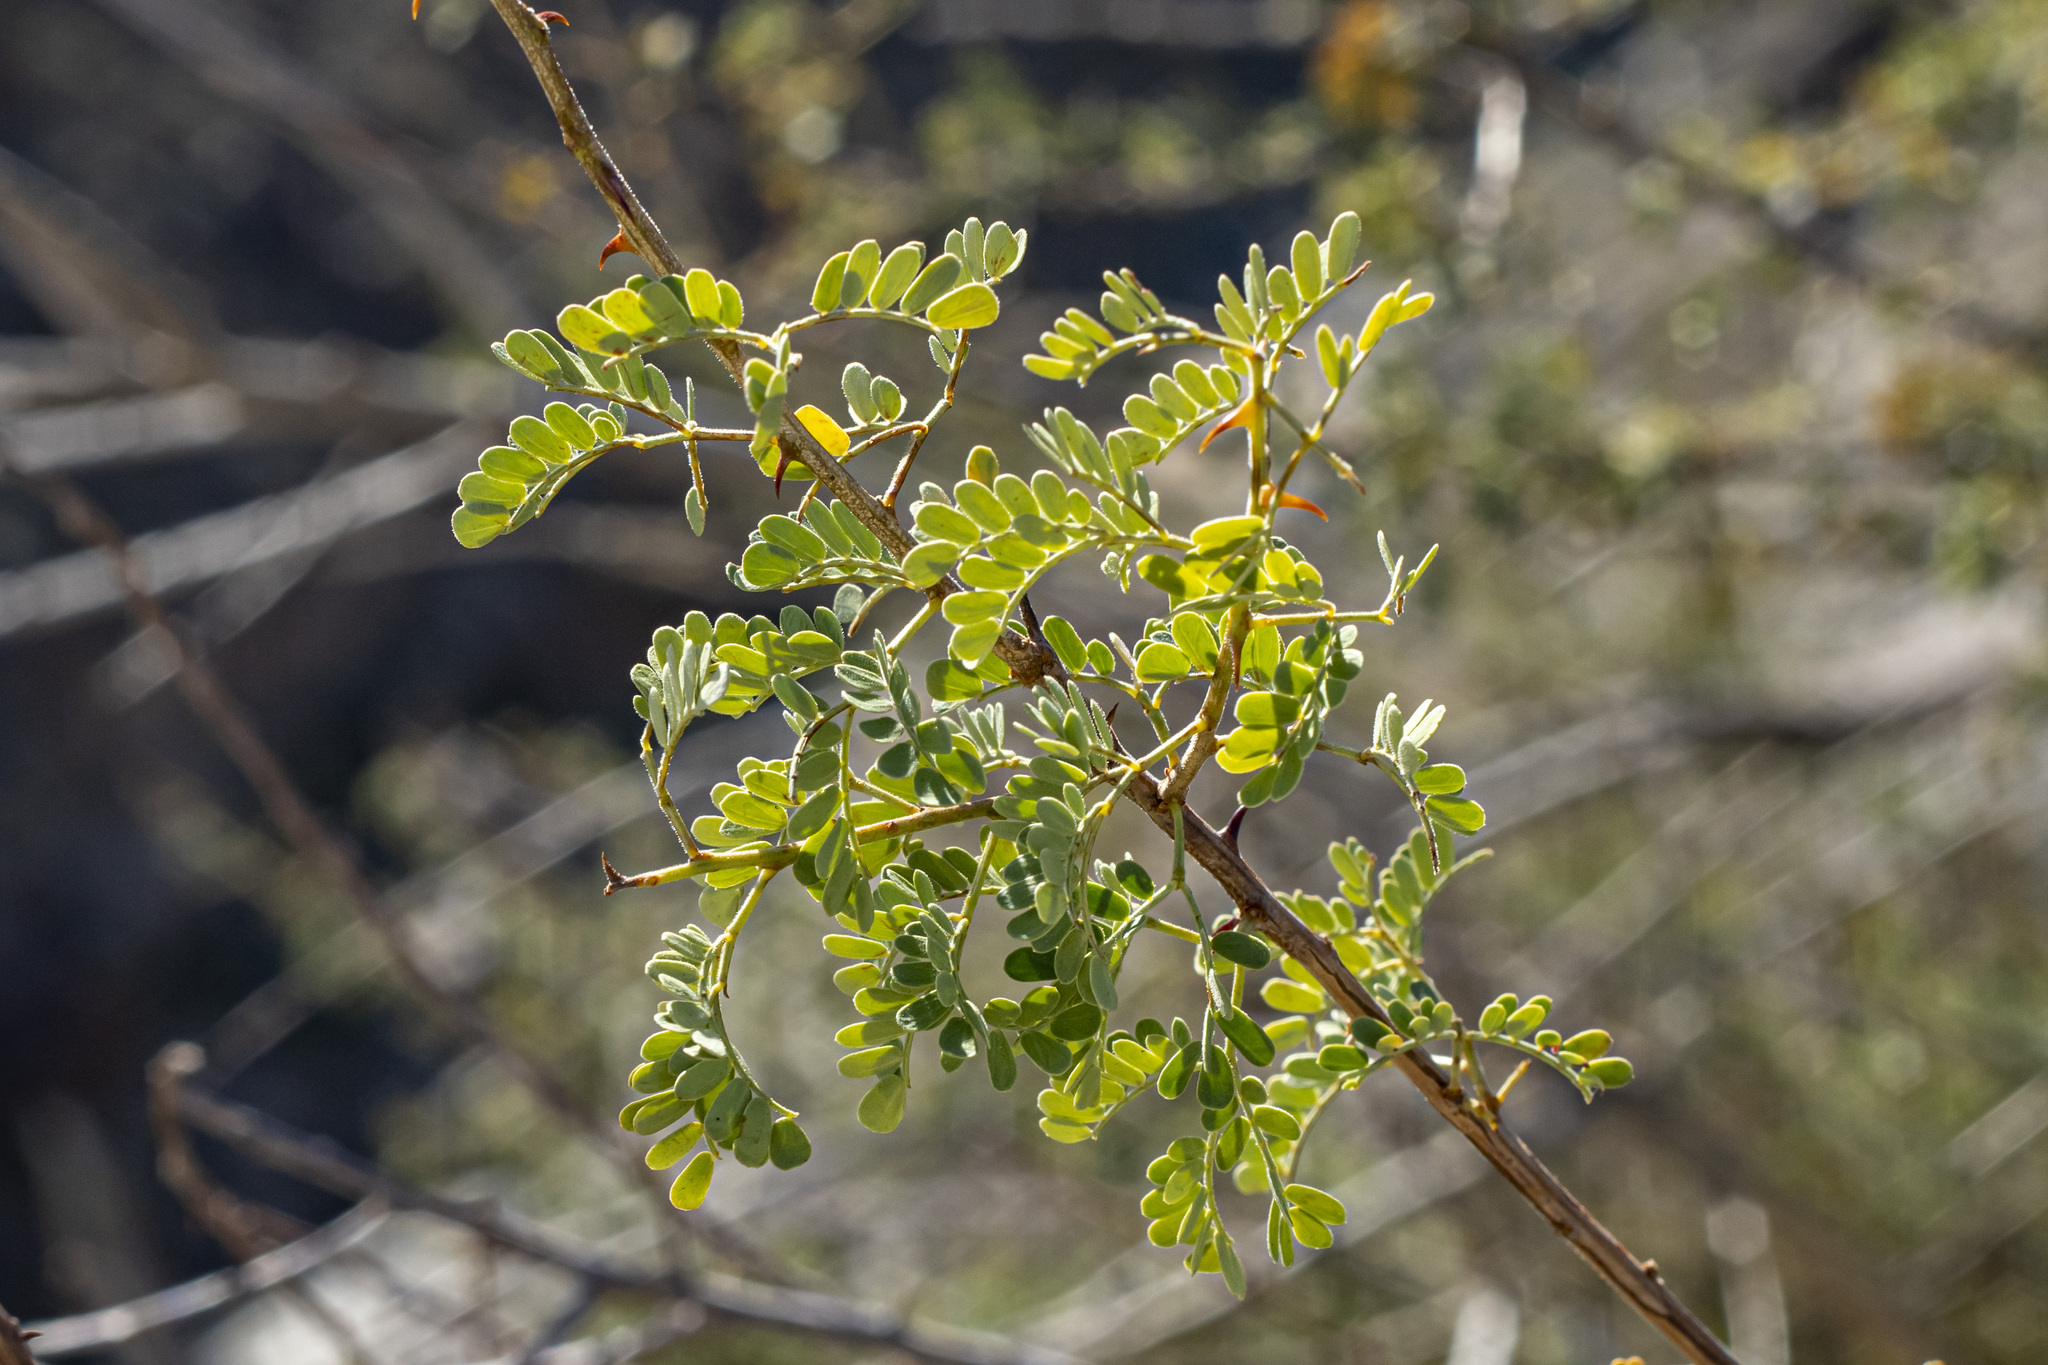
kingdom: Plantae
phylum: Tracheophyta
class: Magnoliopsida
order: Fabales
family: Fabaceae
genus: Senegalia
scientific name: Senegalia greggii
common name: Texas-mimosa
